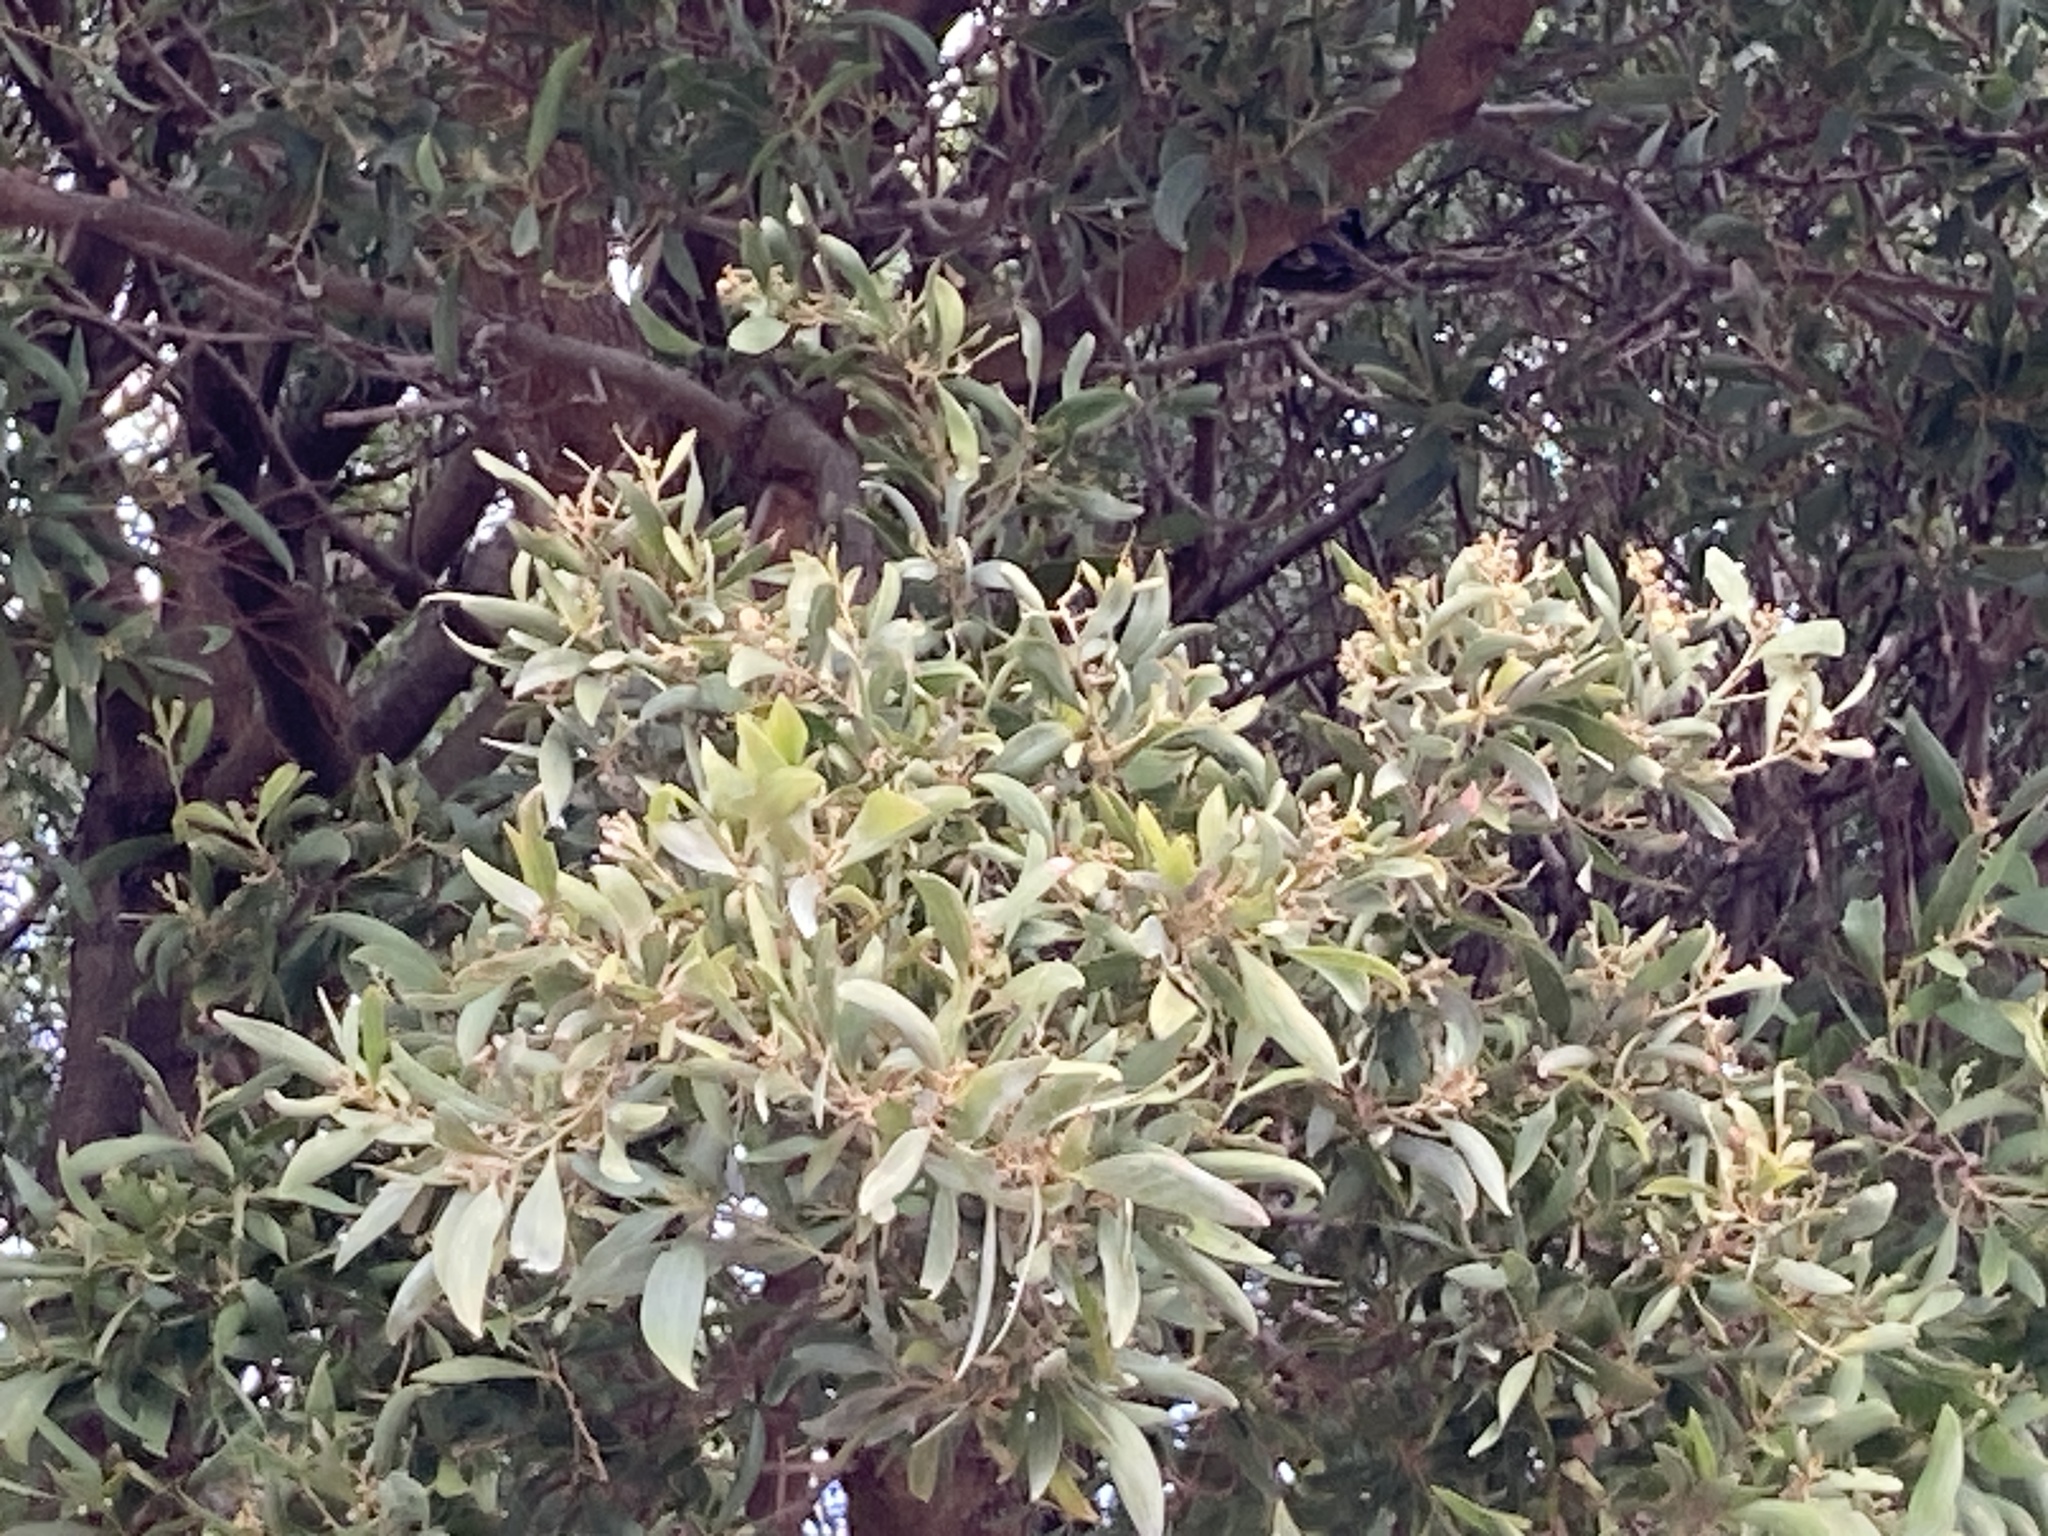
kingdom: Plantae
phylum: Tracheophyta
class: Magnoliopsida
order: Fabales
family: Fabaceae
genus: Acacia
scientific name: Acacia melanoxylon
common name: Blackwood
